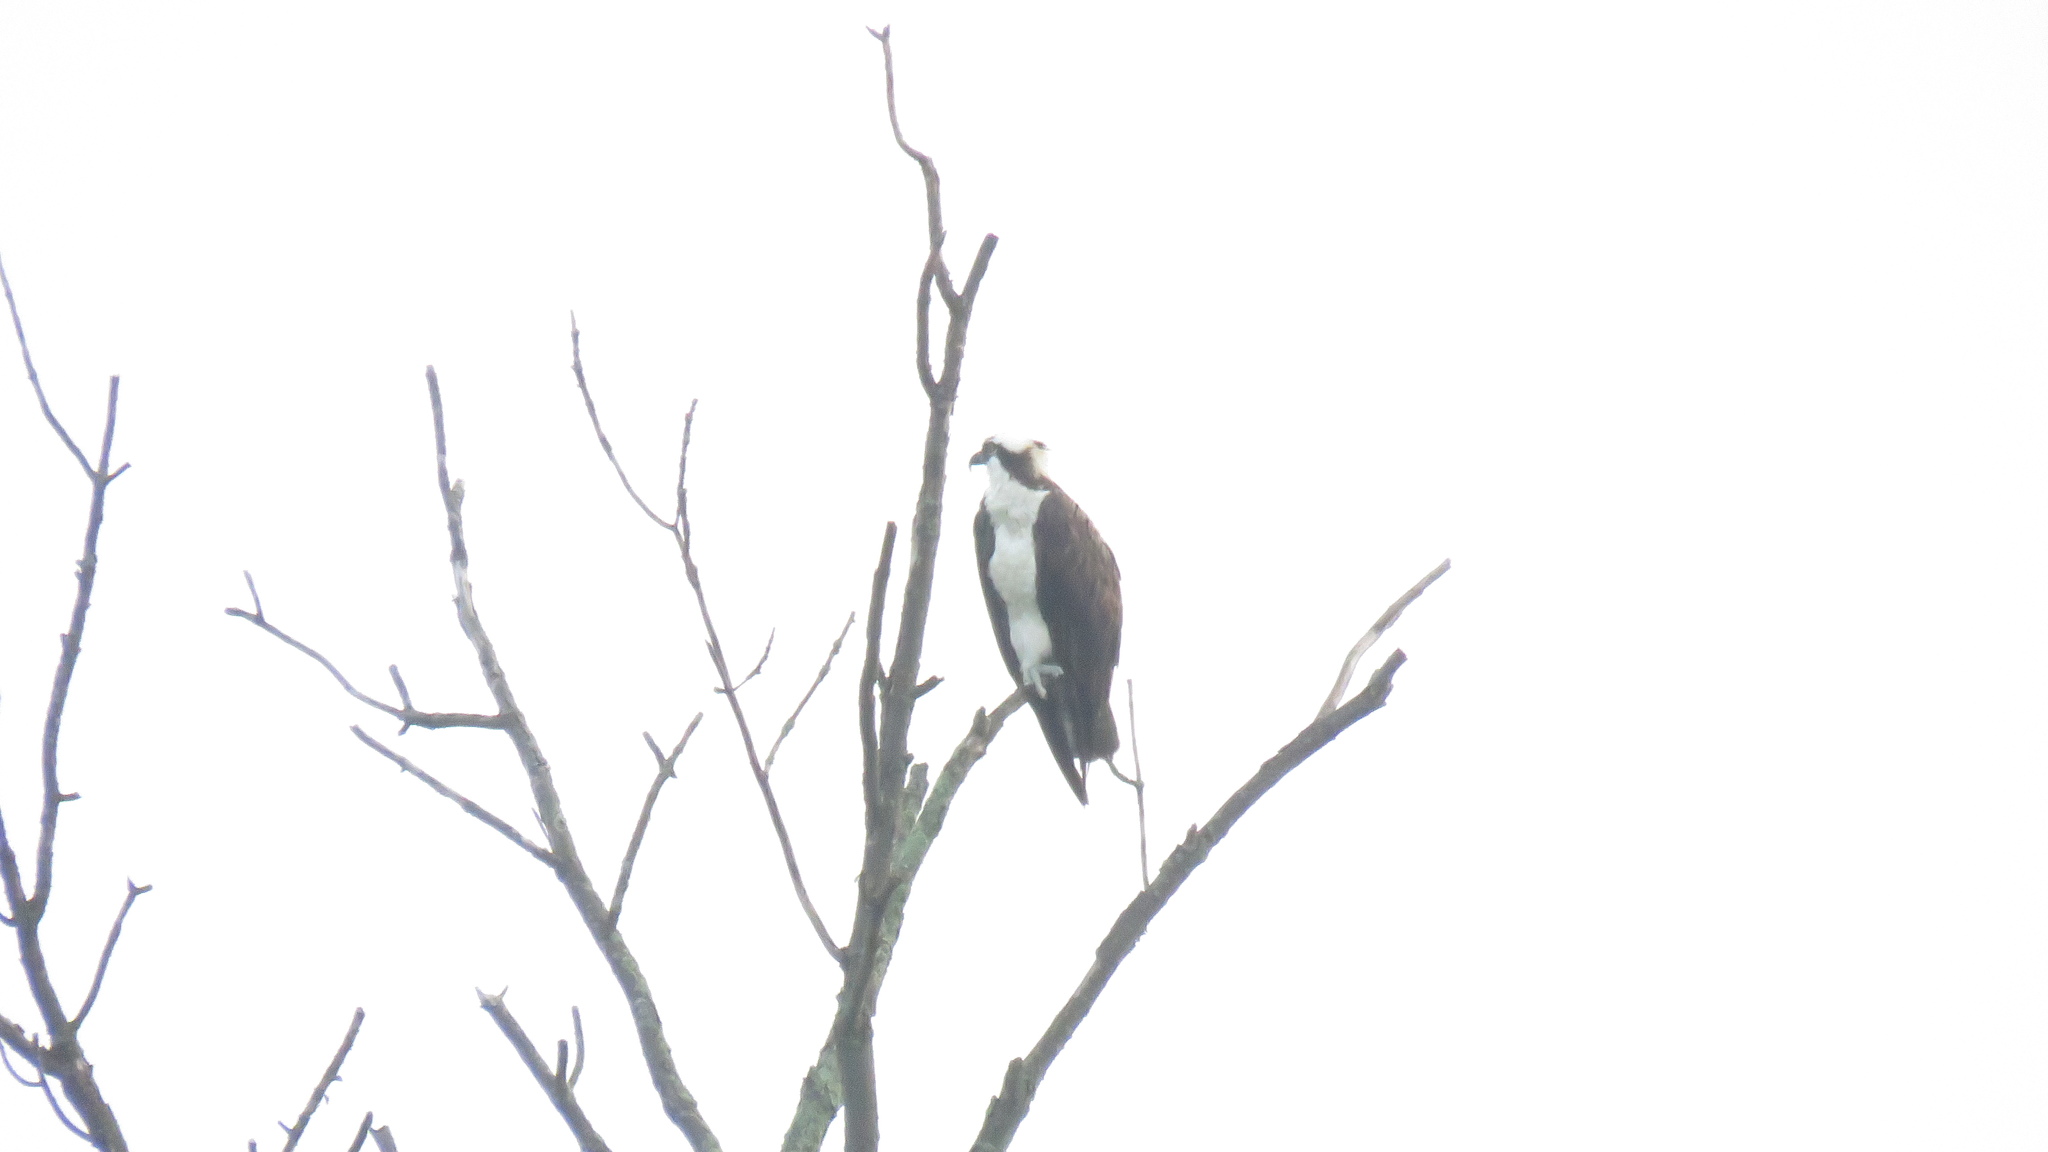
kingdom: Animalia
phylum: Chordata
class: Aves
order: Accipitriformes
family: Pandionidae
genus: Pandion
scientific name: Pandion haliaetus
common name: Osprey
